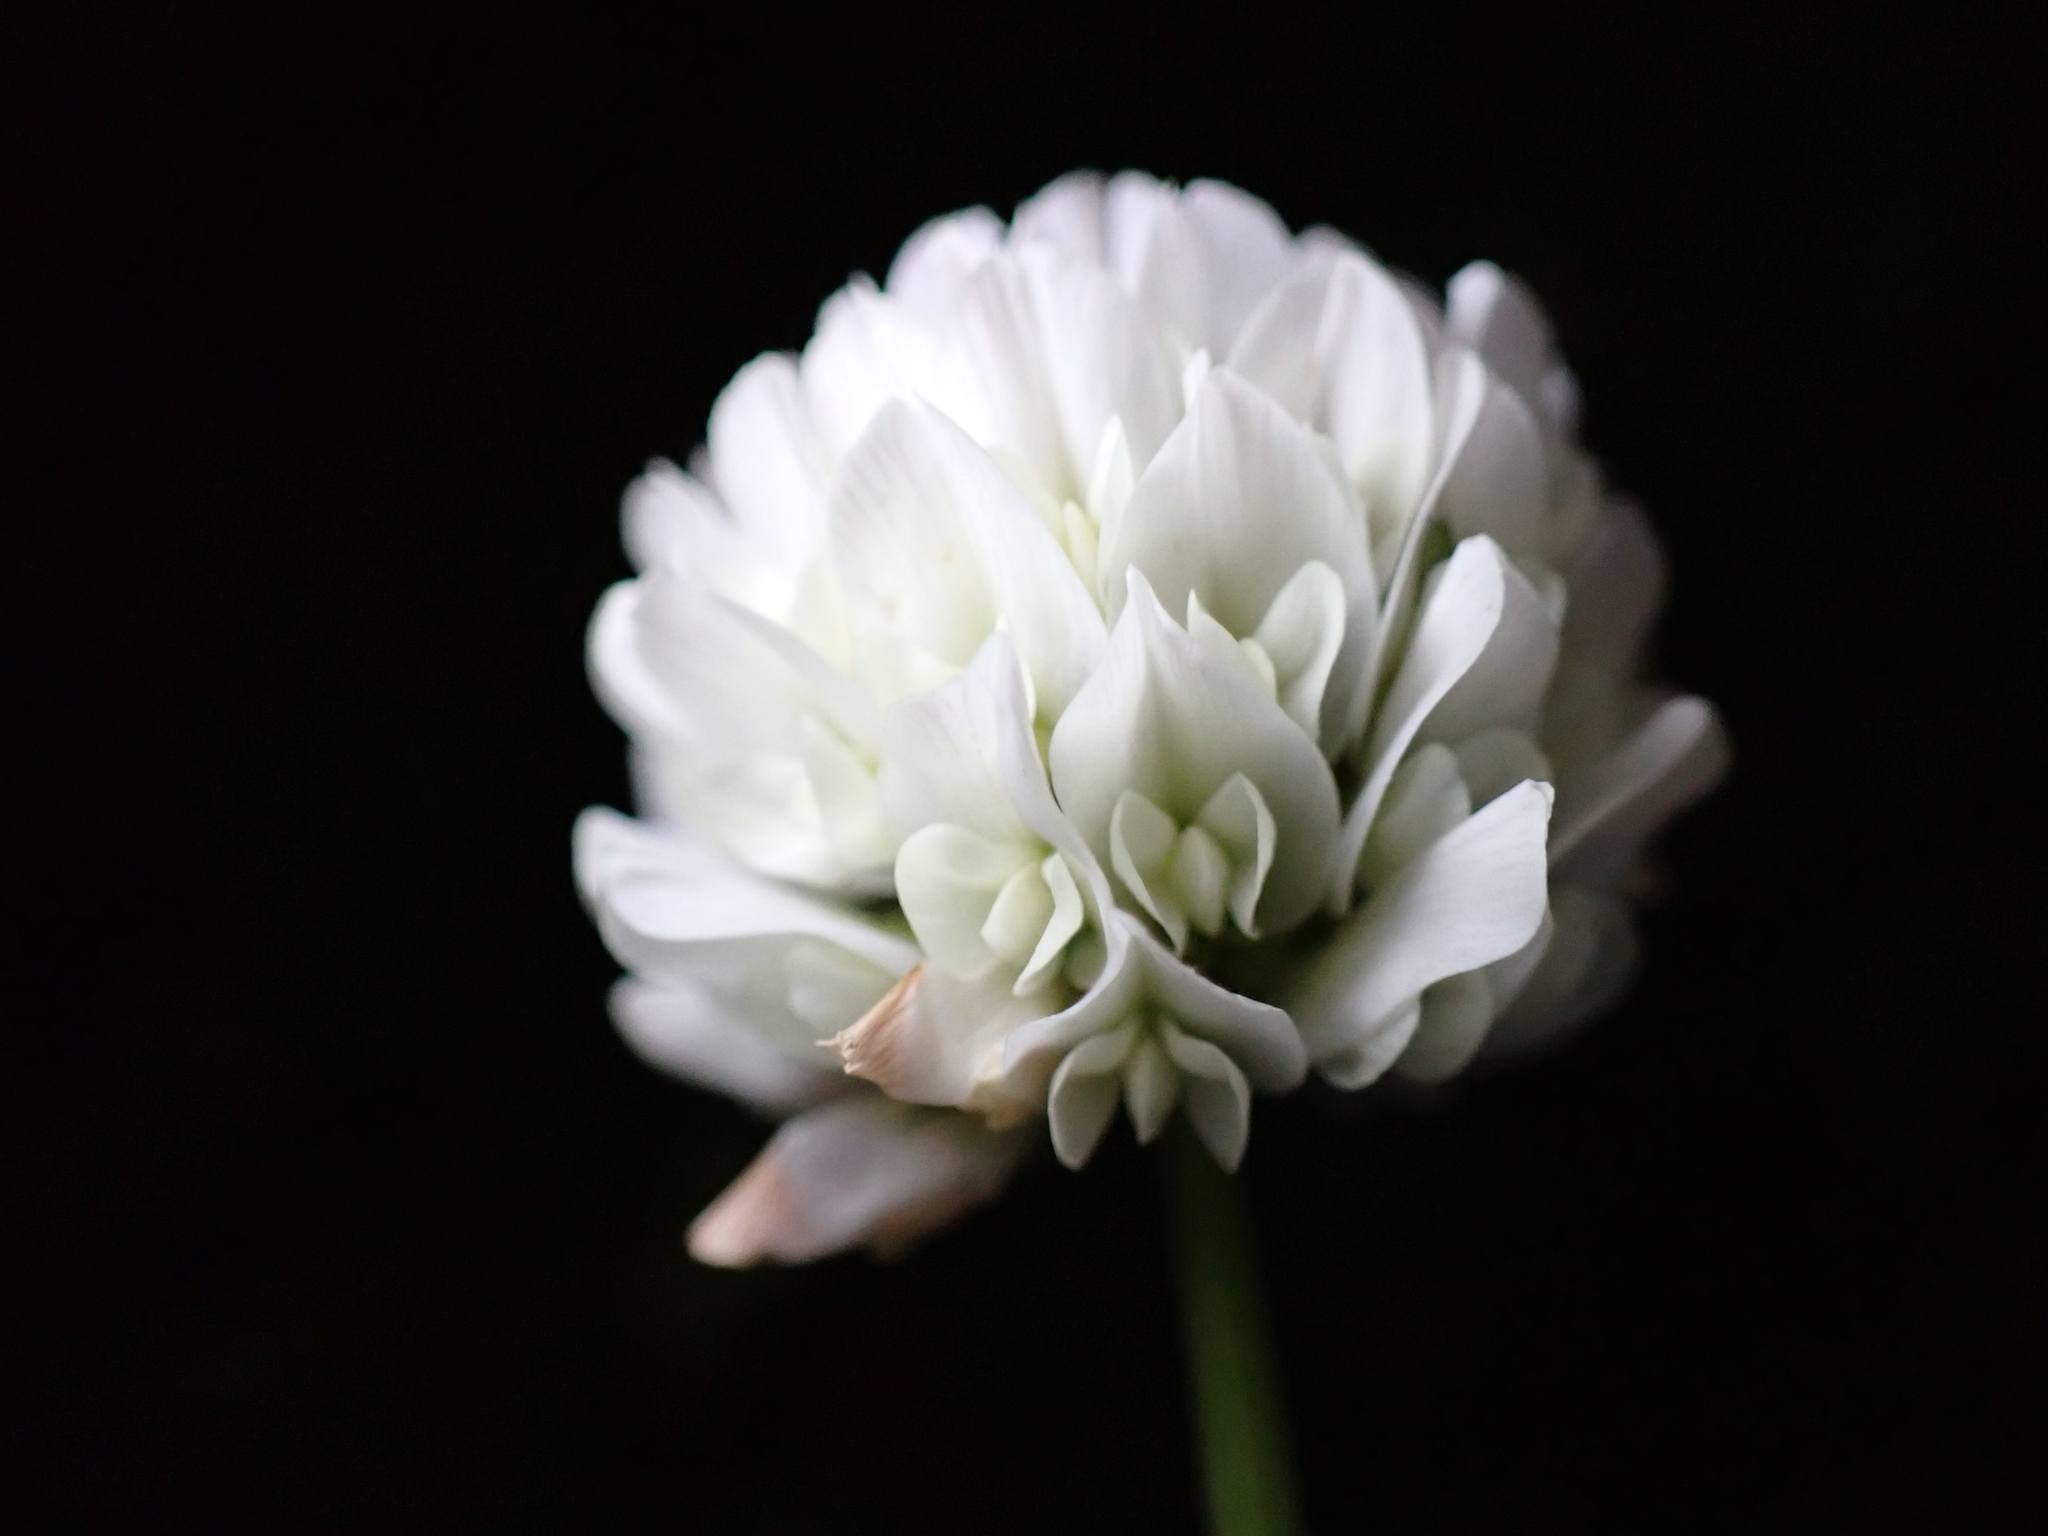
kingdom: Plantae
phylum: Tracheophyta
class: Magnoliopsida
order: Fabales
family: Fabaceae
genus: Trifolium
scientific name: Trifolium repens
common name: White clover
